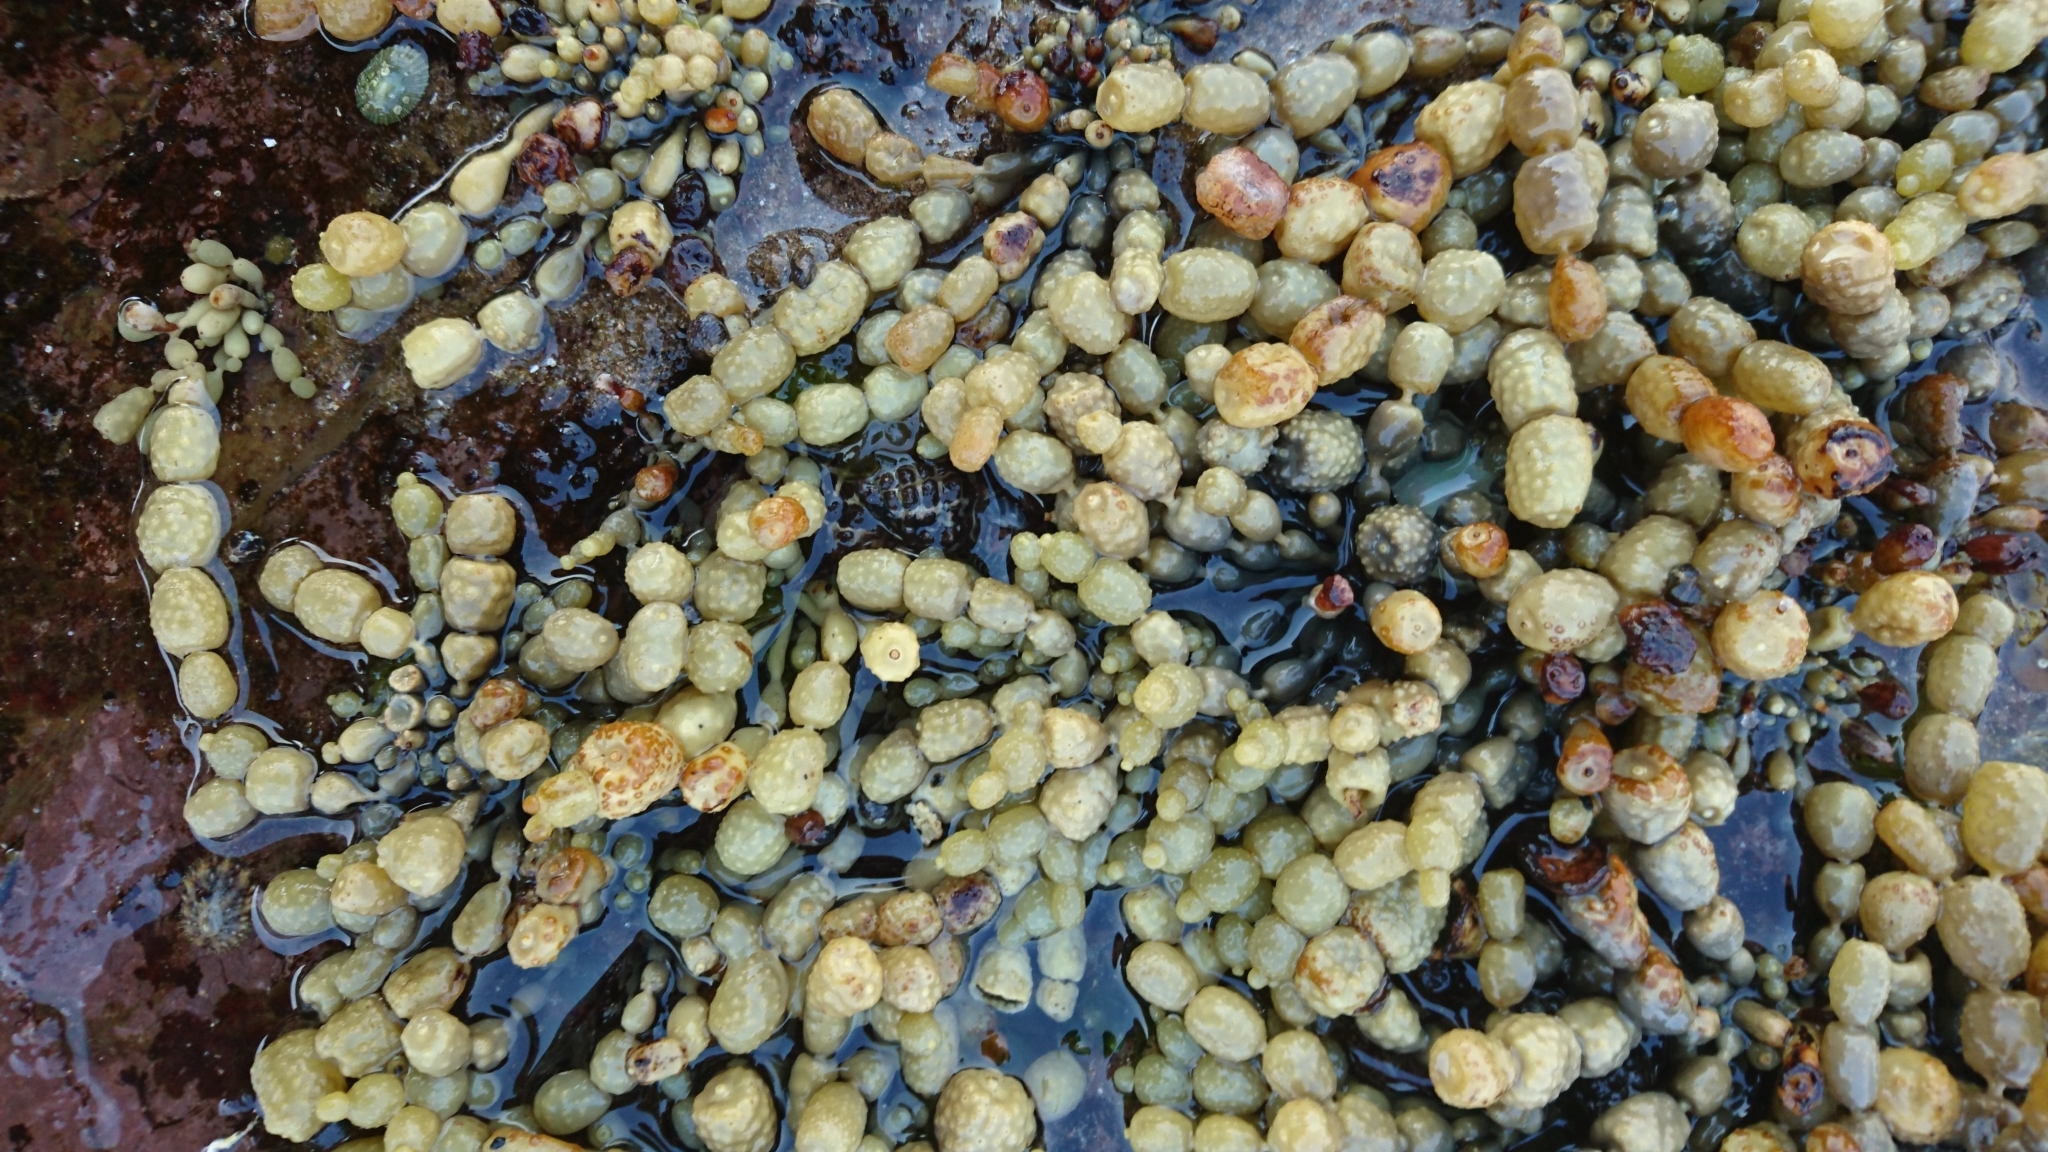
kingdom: Chromista
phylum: Ochrophyta
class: Phaeophyceae
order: Fucales
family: Hormosiraceae
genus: Hormosira
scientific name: Hormosira banksii
